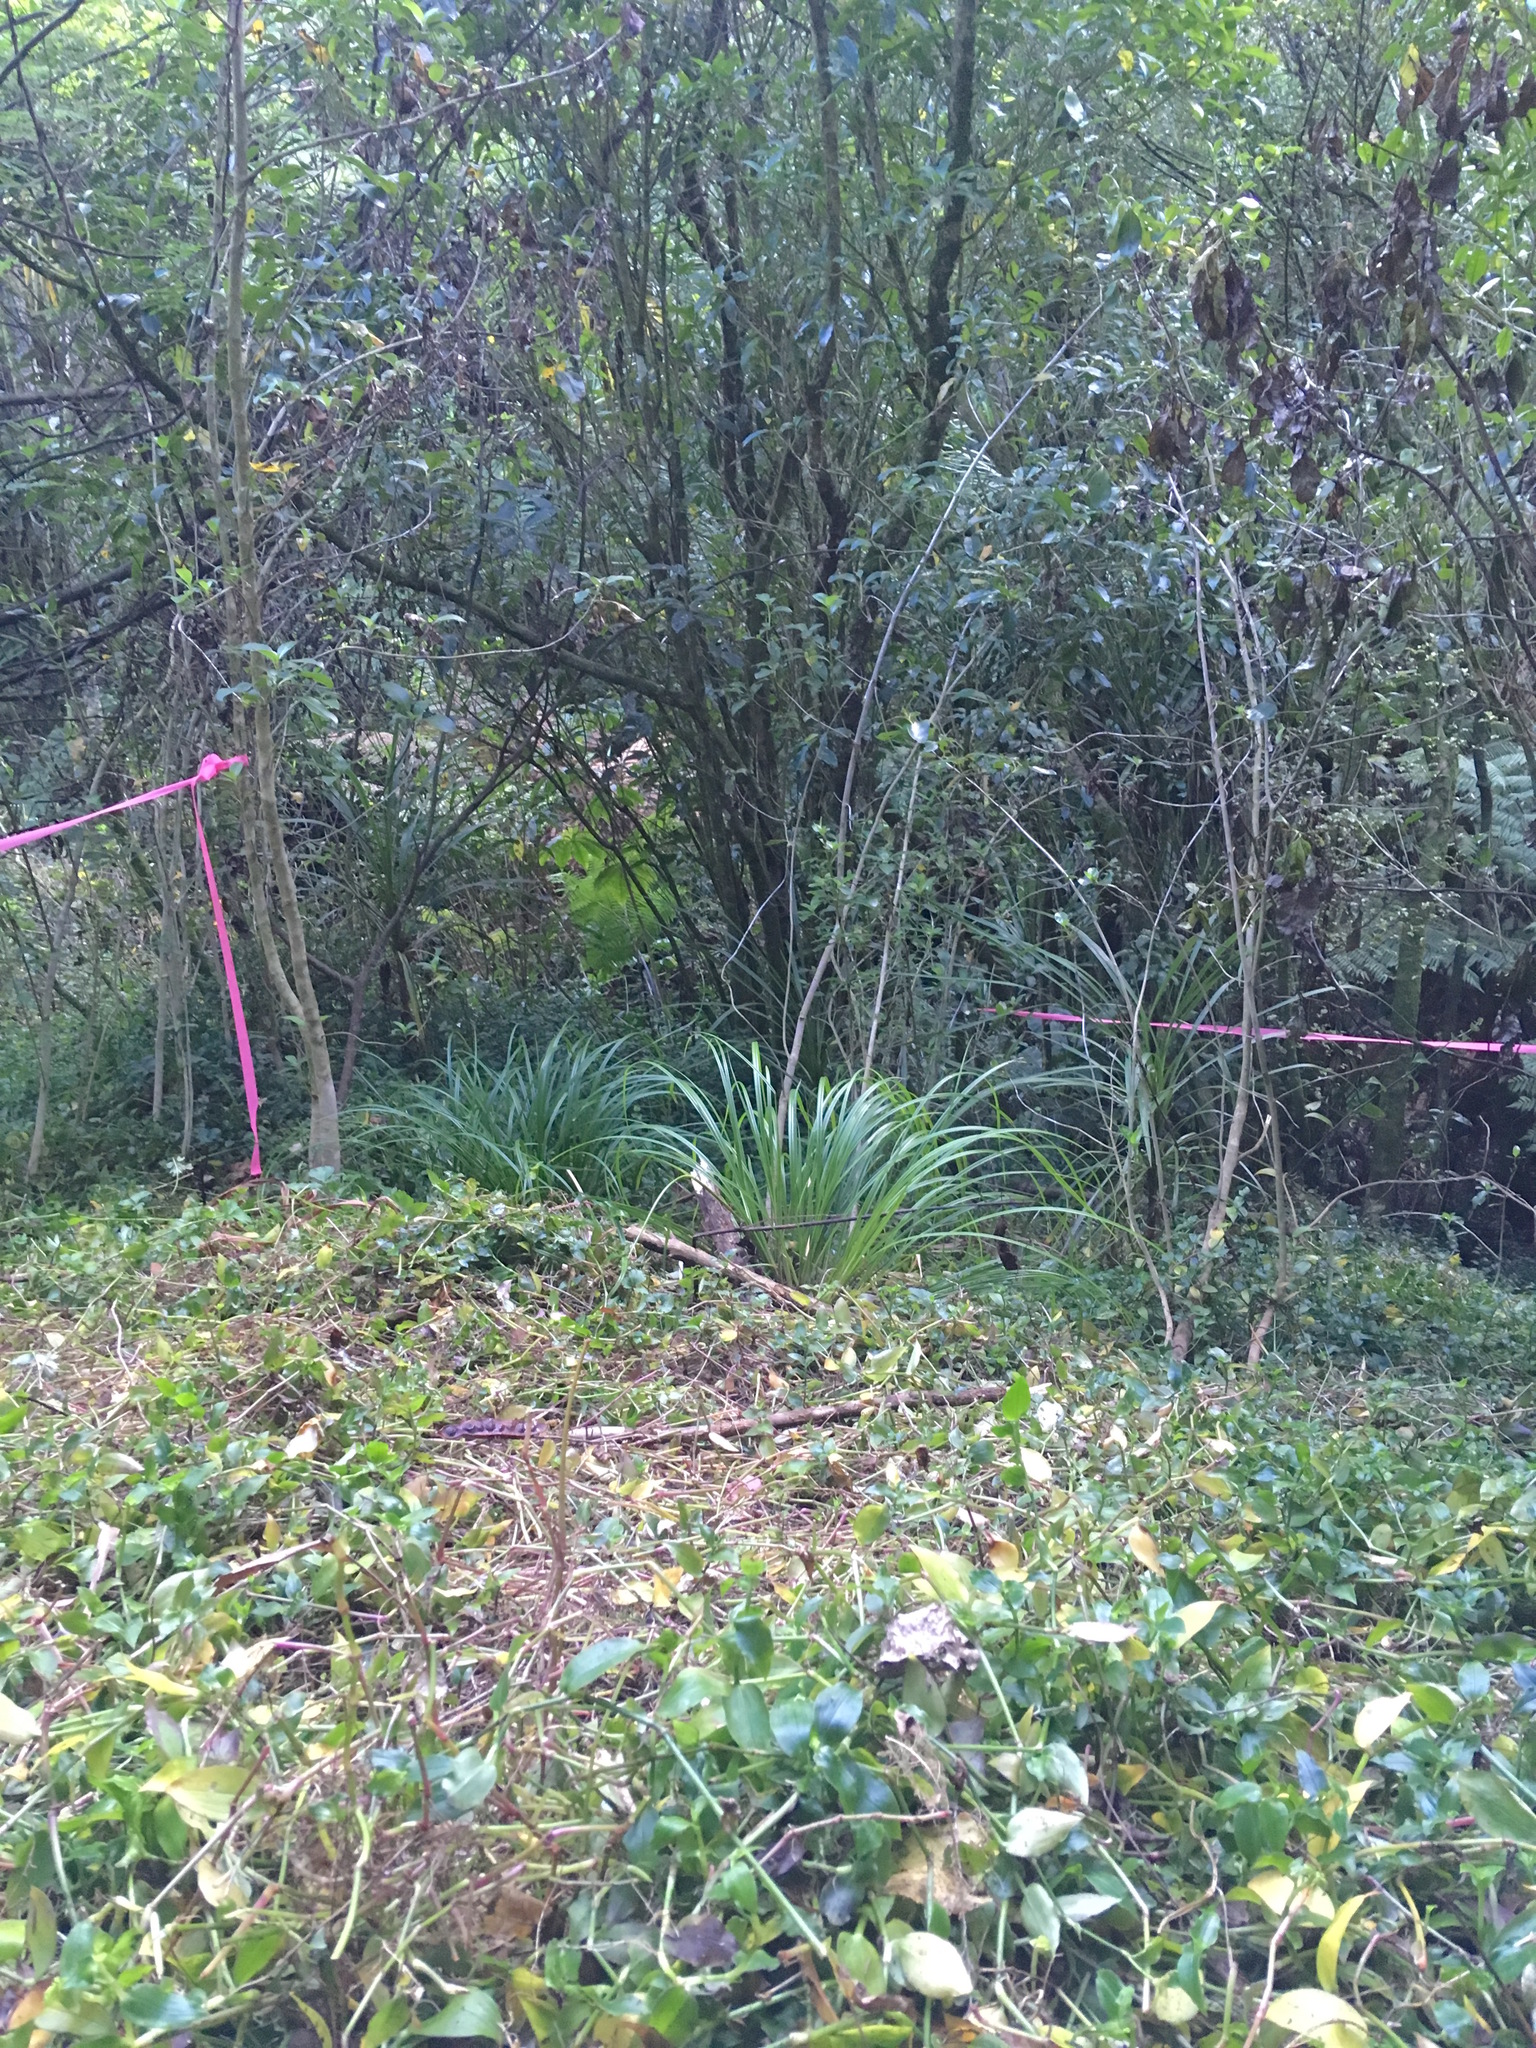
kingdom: Plantae
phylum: Tracheophyta
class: Liliopsida
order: Commelinales
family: Commelinaceae
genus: Tradescantia
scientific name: Tradescantia fluminensis
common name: Wandering-jew
